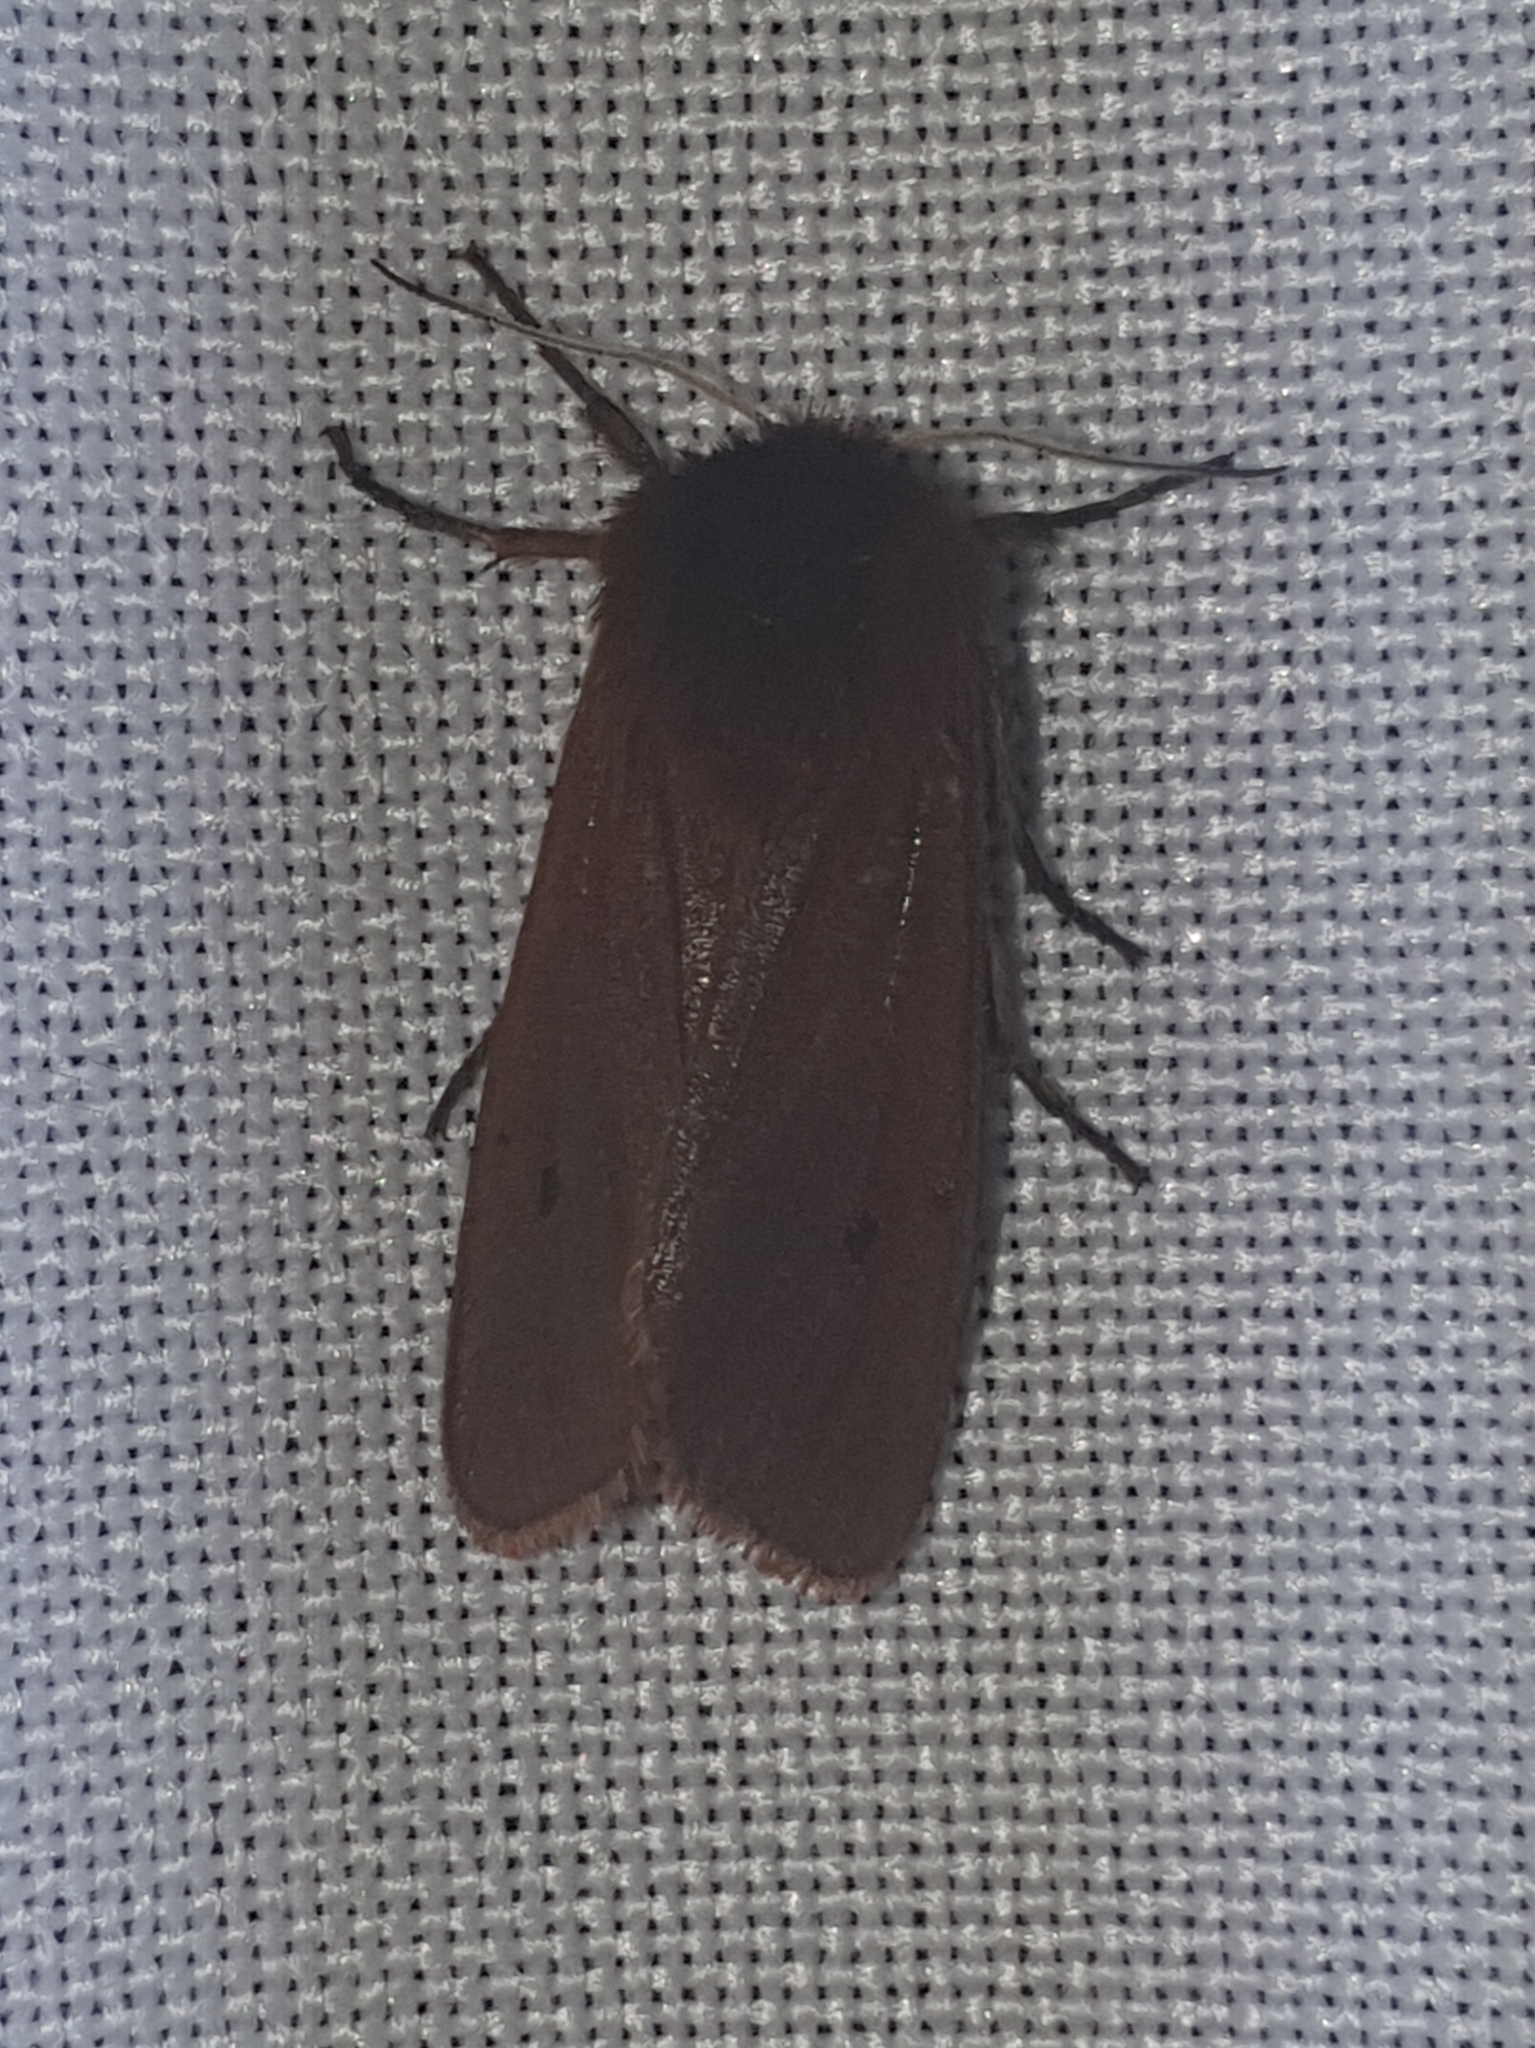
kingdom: Animalia
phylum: Arthropoda
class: Insecta
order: Lepidoptera
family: Erebidae
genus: Phragmatobia
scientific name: Phragmatobia fuliginosa
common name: Ruby tiger
